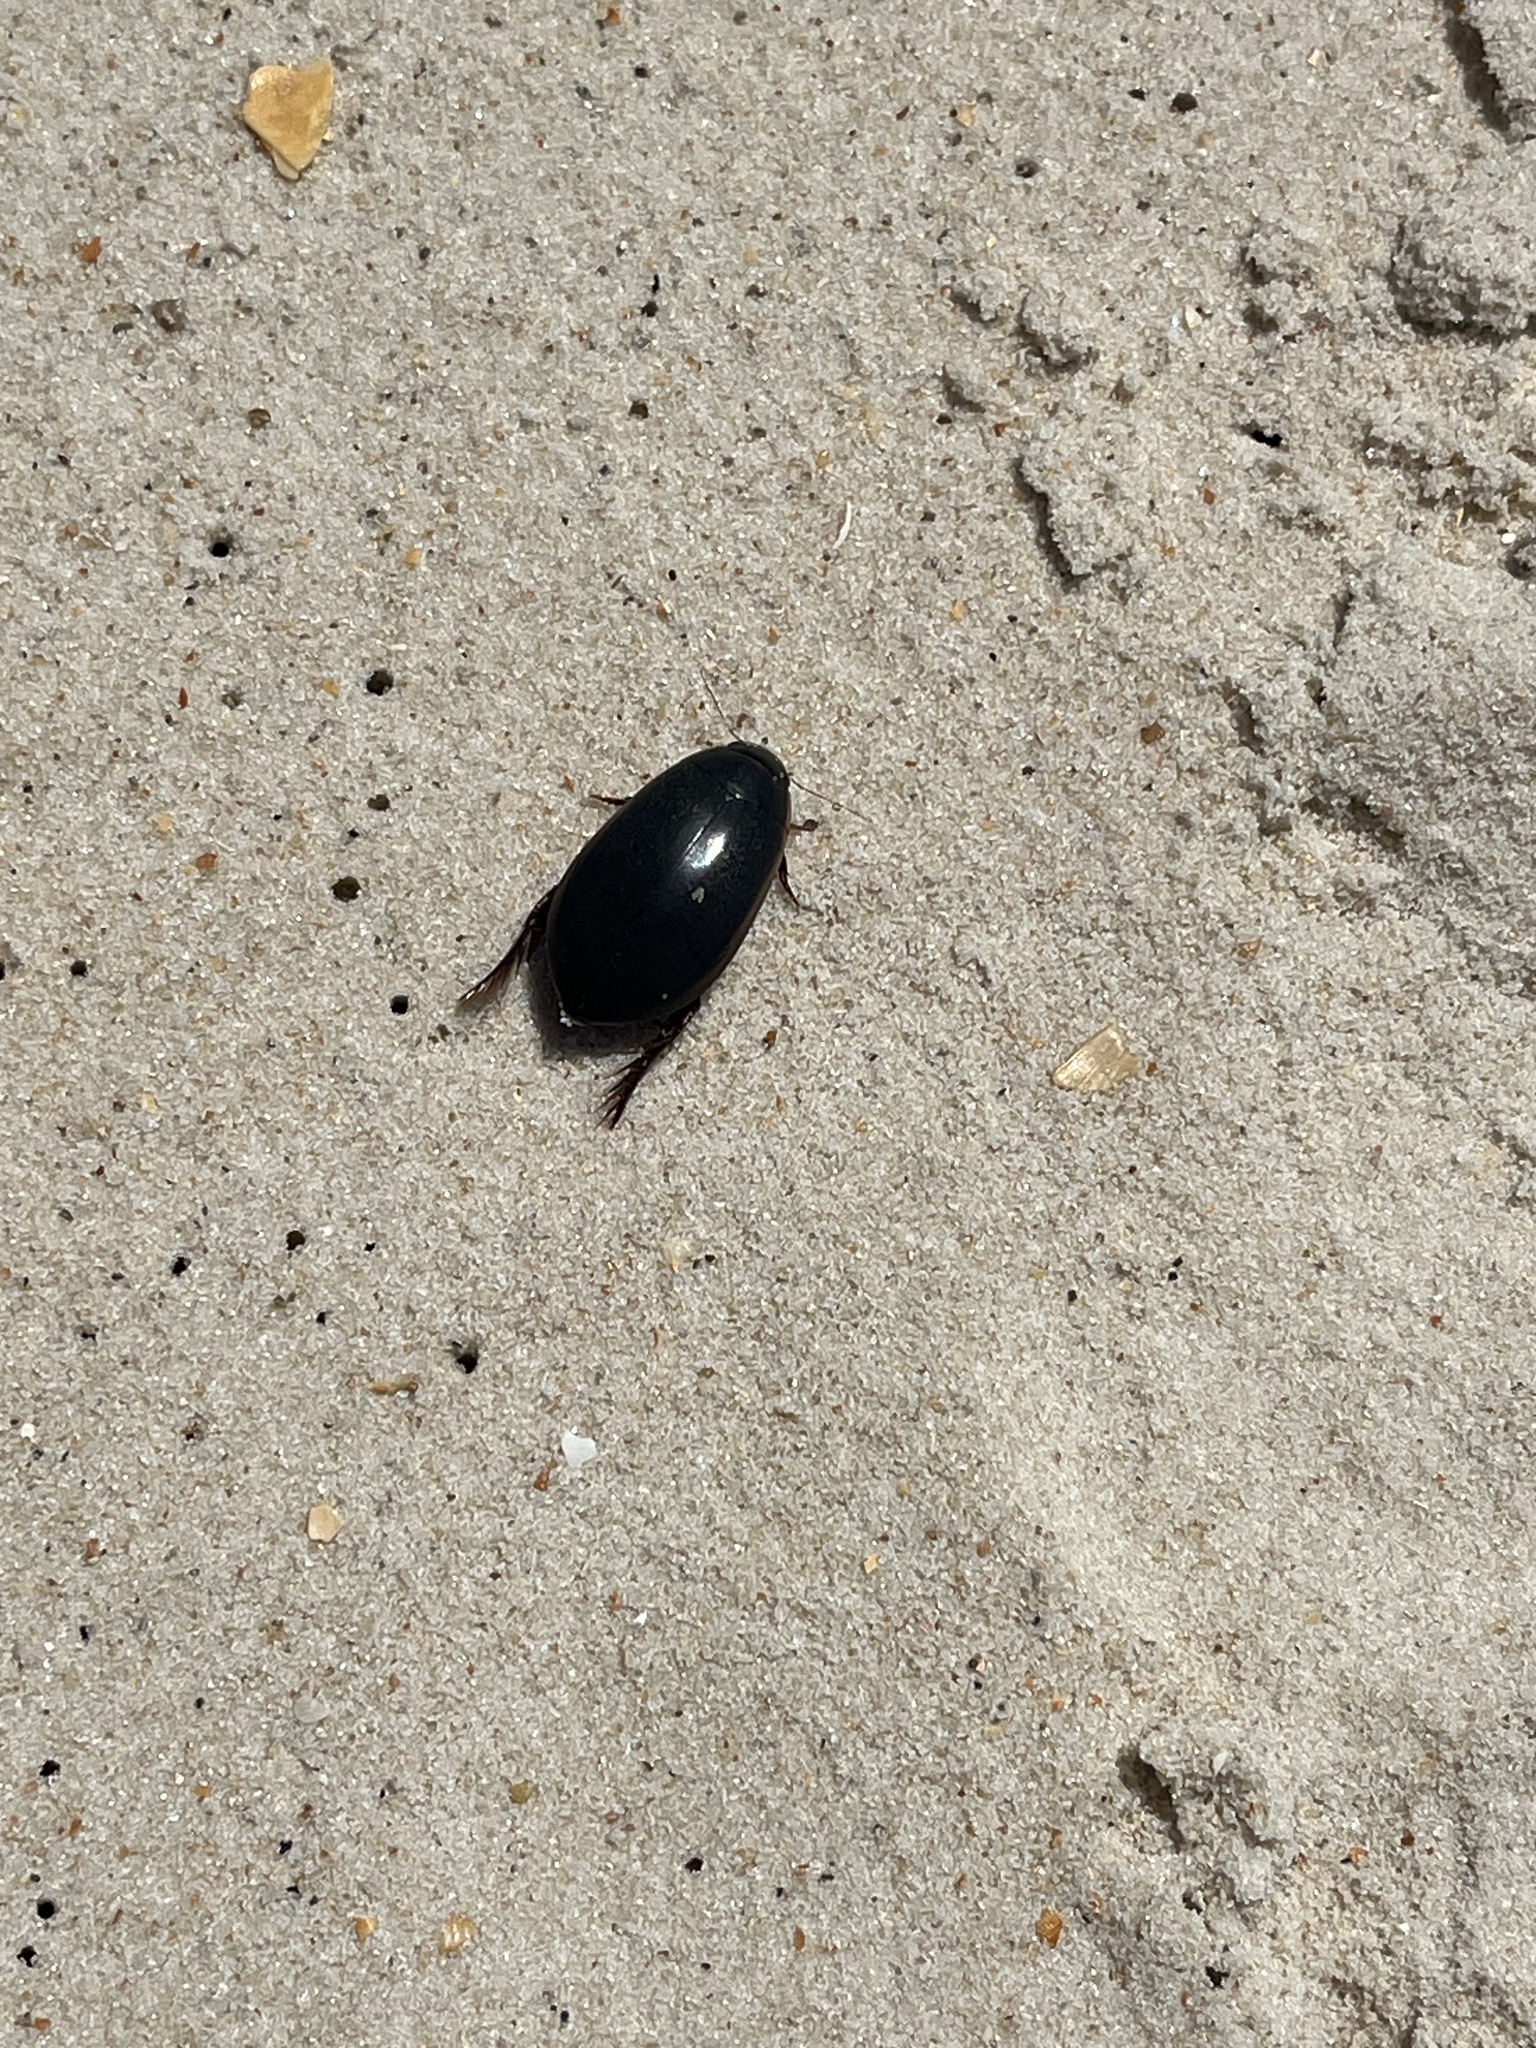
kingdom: Animalia
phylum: Arthropoda
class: Insecta
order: Coleoptera
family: Dytiscidae
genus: Cybister
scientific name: Cybister fimbriolatus
